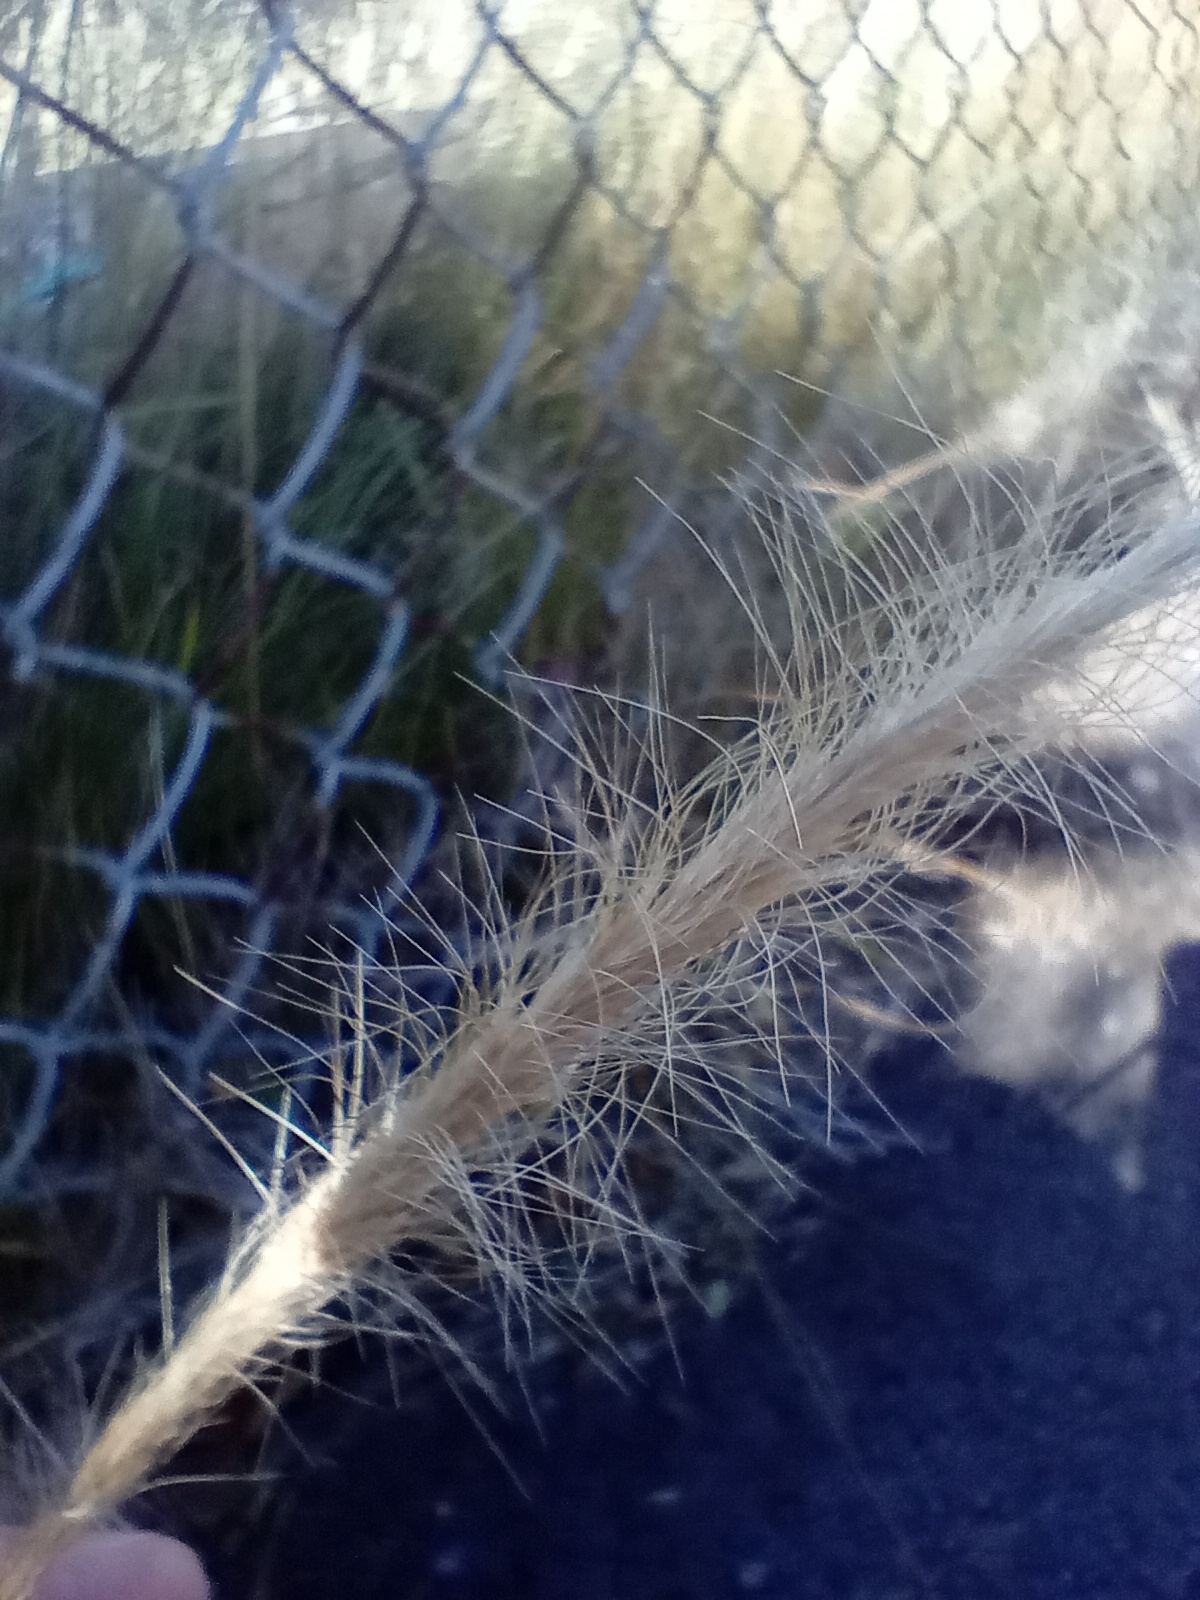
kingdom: Plantae
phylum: Tracheophyta
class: Liliopsida
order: Poales
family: Poaceae
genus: Dichelachne
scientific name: Dichelachne crinita
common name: Clovenfoot plumegrass
